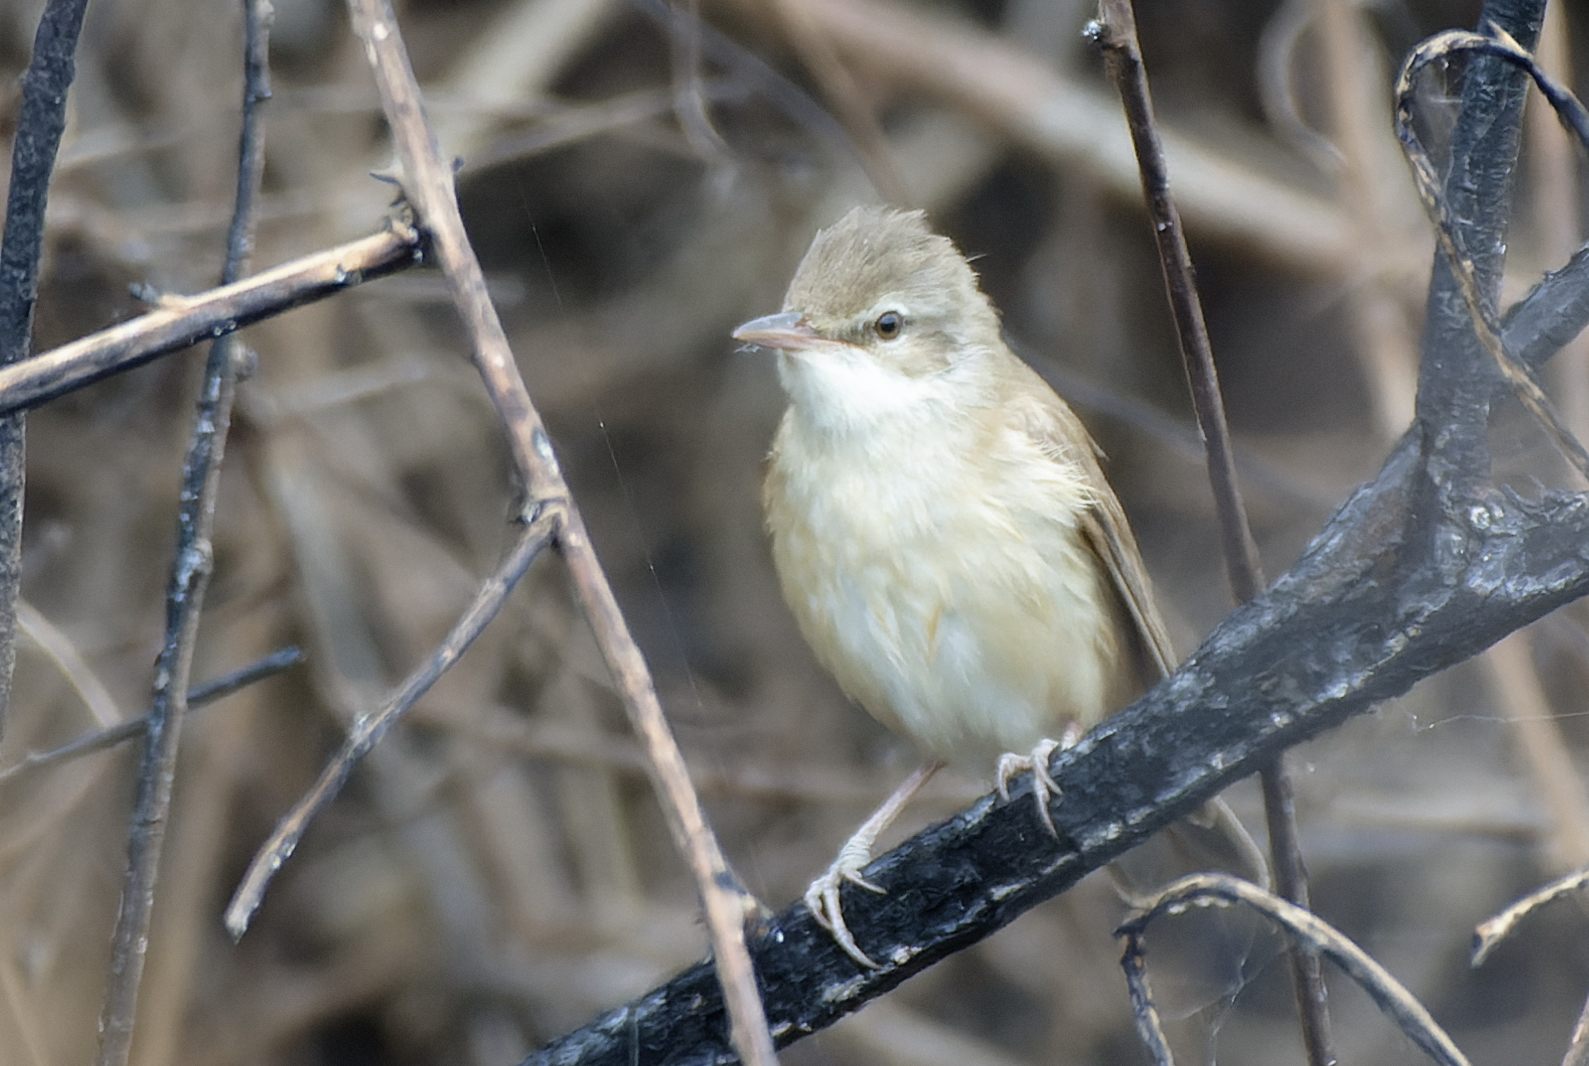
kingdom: Animalia
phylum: Chordata
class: Aves
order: Passeriformes
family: Acrocephalidae
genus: Acrocephalus
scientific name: Acrocephalus arundinaceus
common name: Great reed warbler
